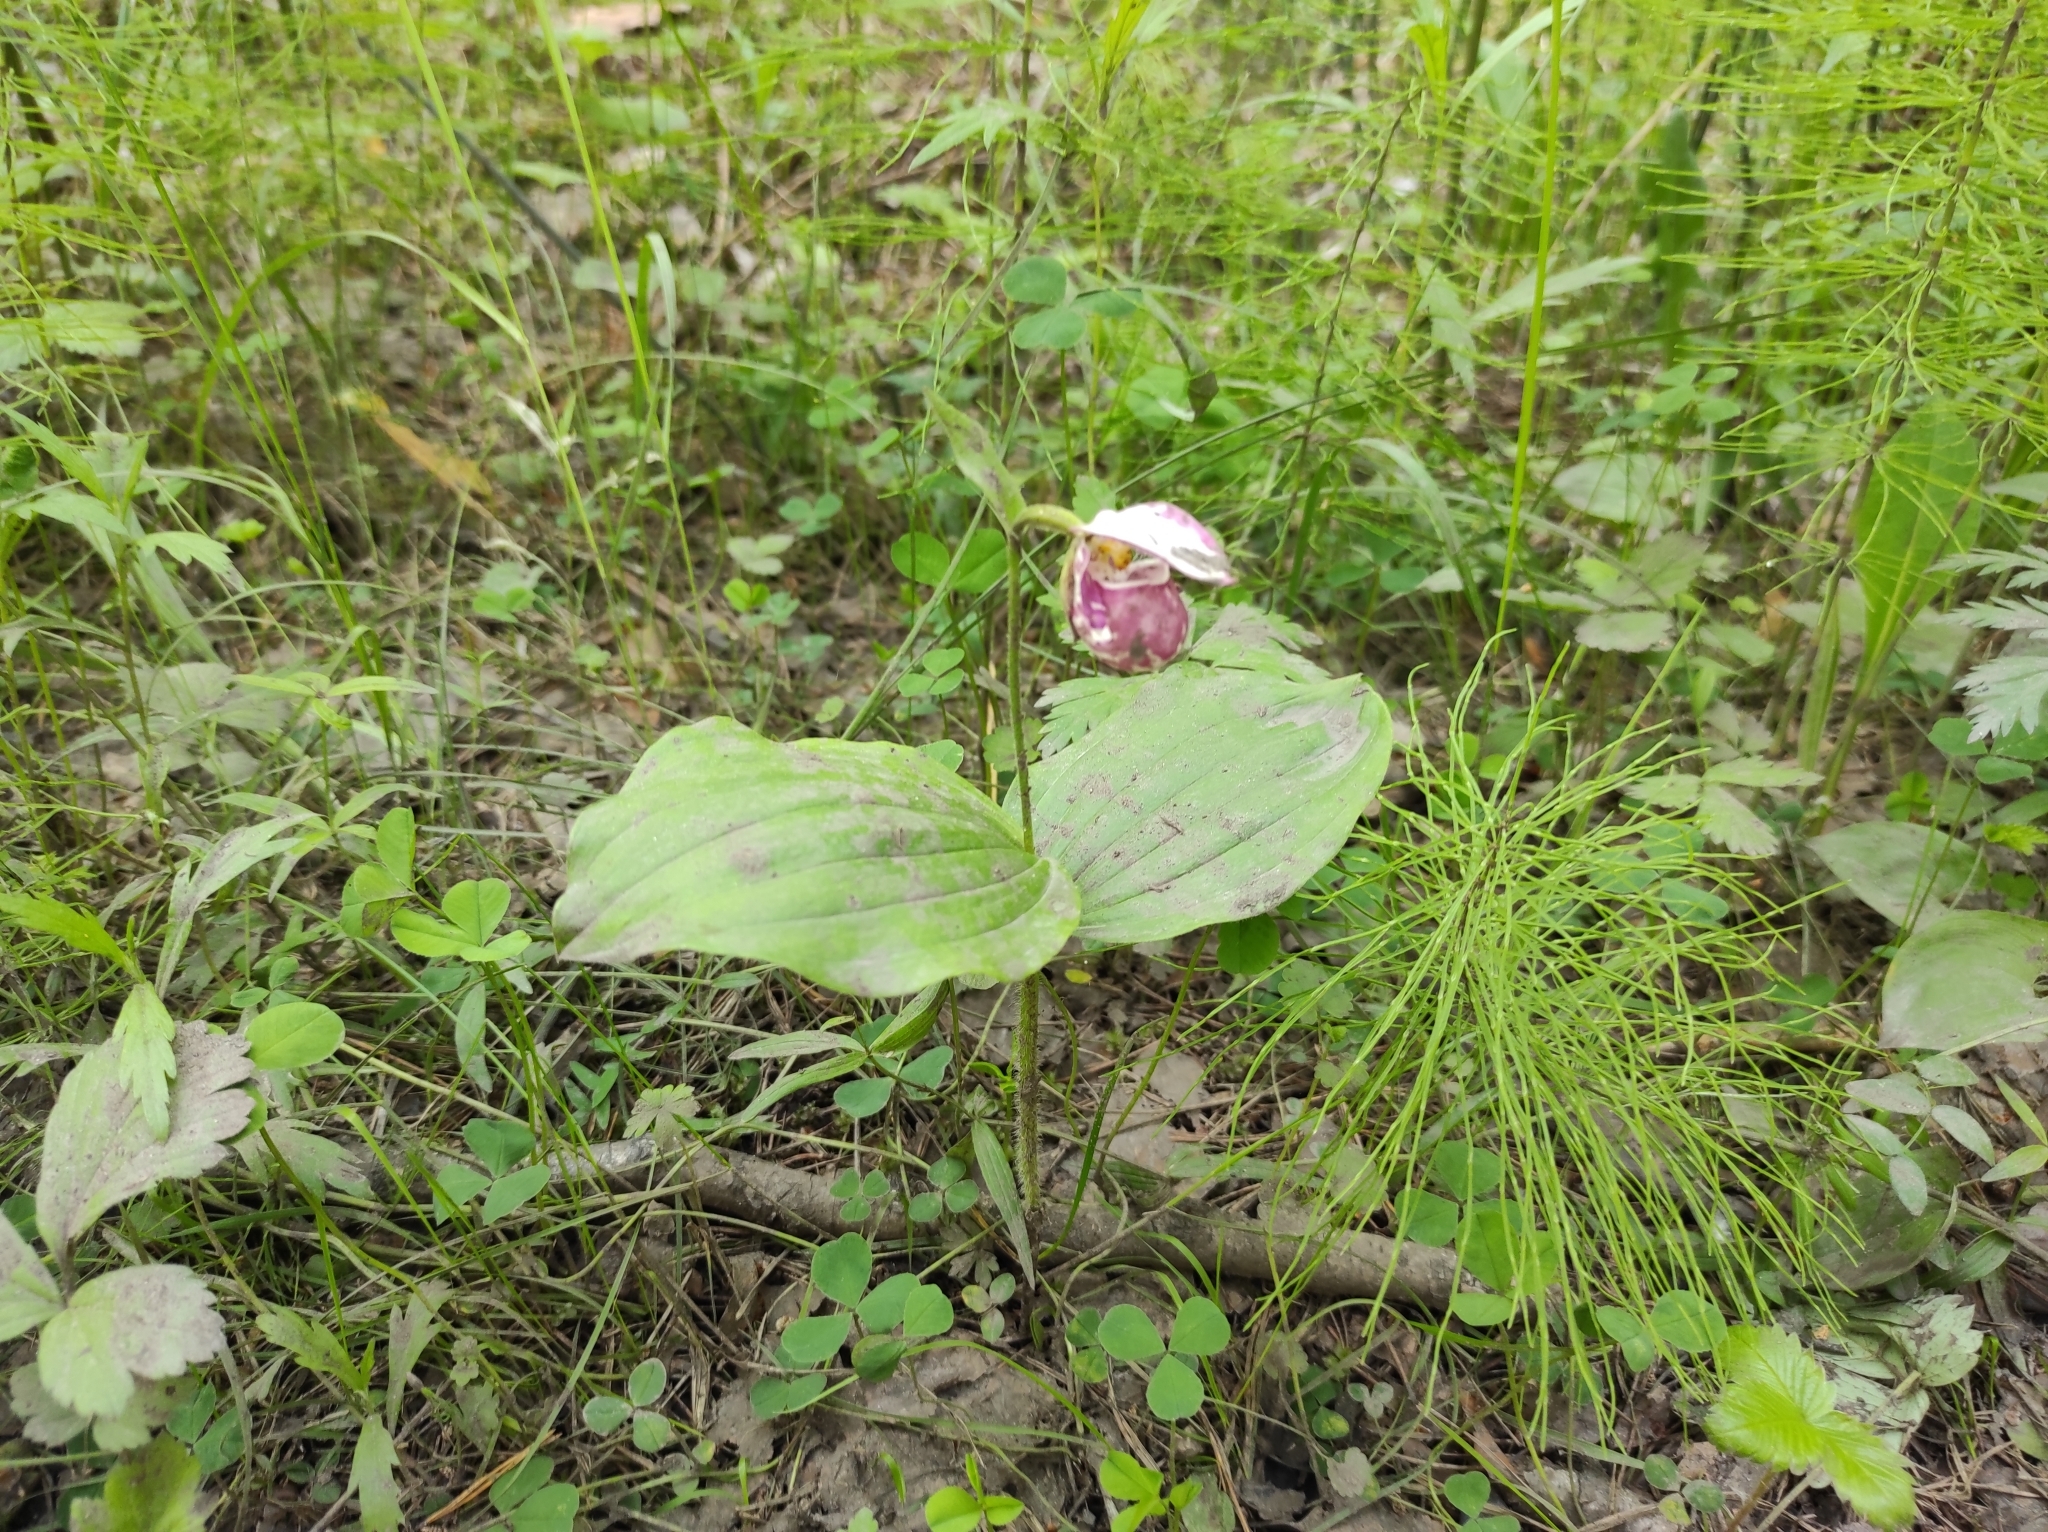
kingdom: Plantae
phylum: Tracheophyta
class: Liliopsida
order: Asparagales
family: Orchidaceae
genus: Cypripedium
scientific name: Cypripedium guttatum
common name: Pink lady slipper
